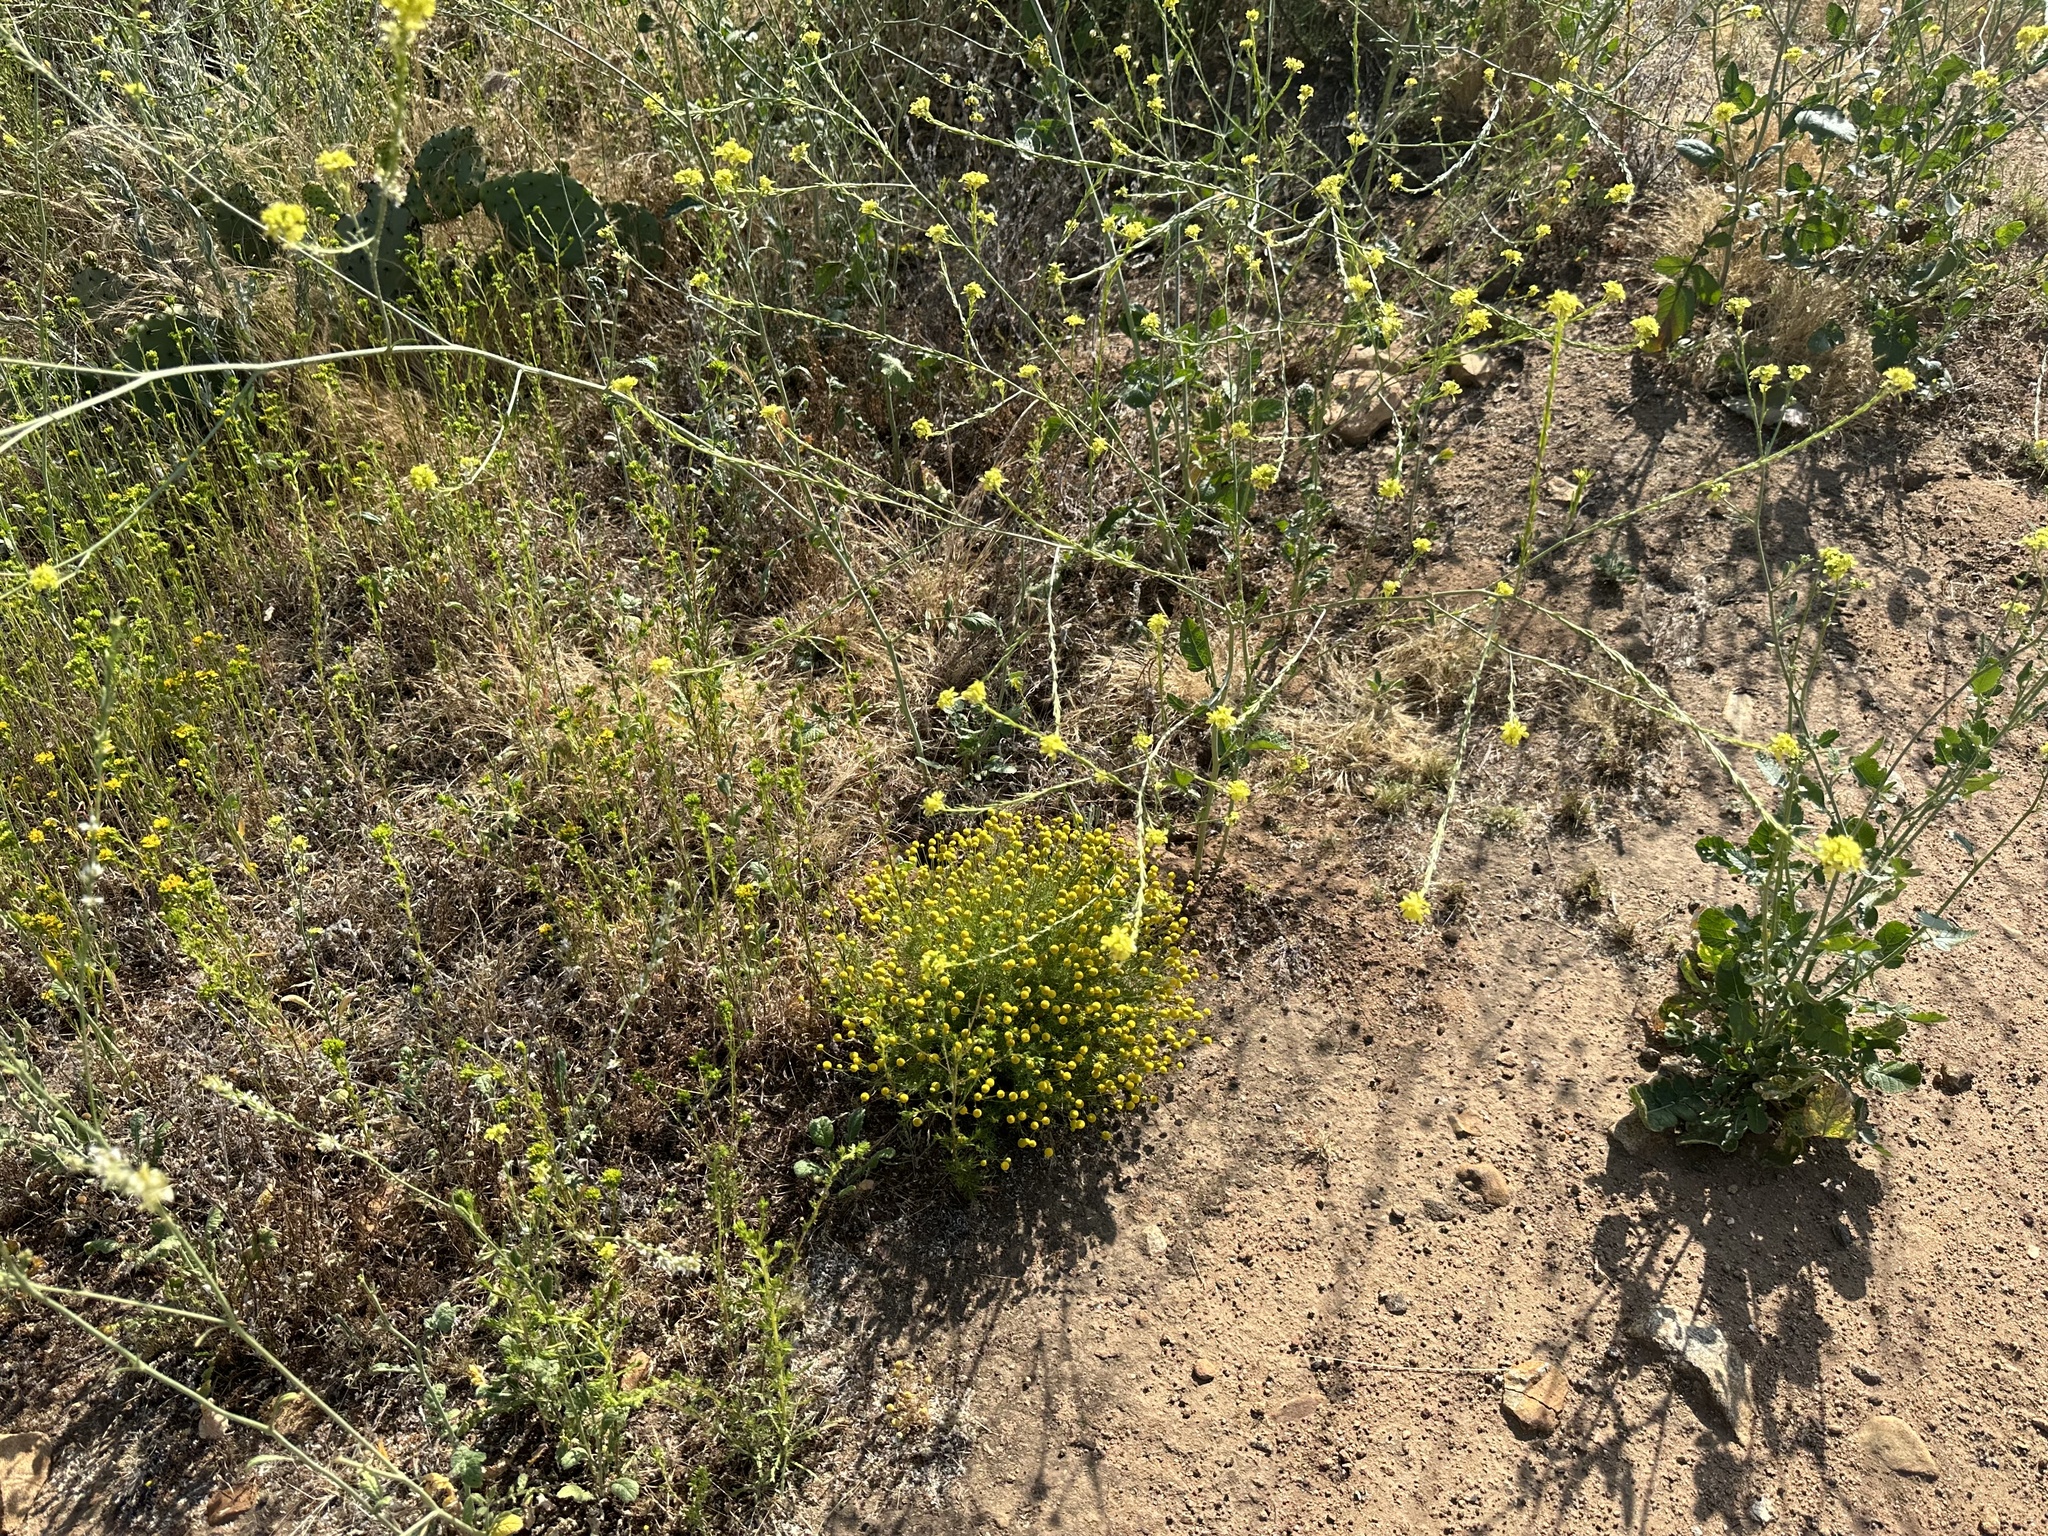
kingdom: Plantae
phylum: Tracheophyta
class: Magnoliopsida
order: Asterales
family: Asteraceae
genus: Oncosiphon
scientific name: Oncosiphon pilulifer
